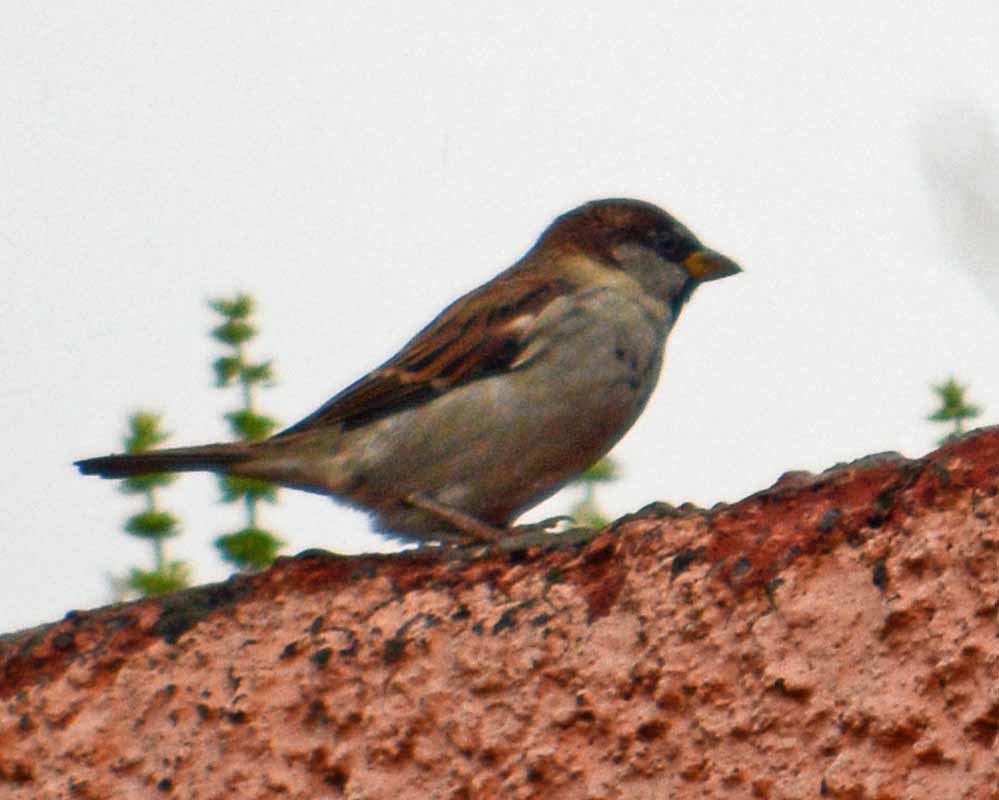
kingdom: Animalia
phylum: Chordata
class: Aves
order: Passeriformes
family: Passeridae
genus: Passer
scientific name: Passer domesticus
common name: House sparrow
